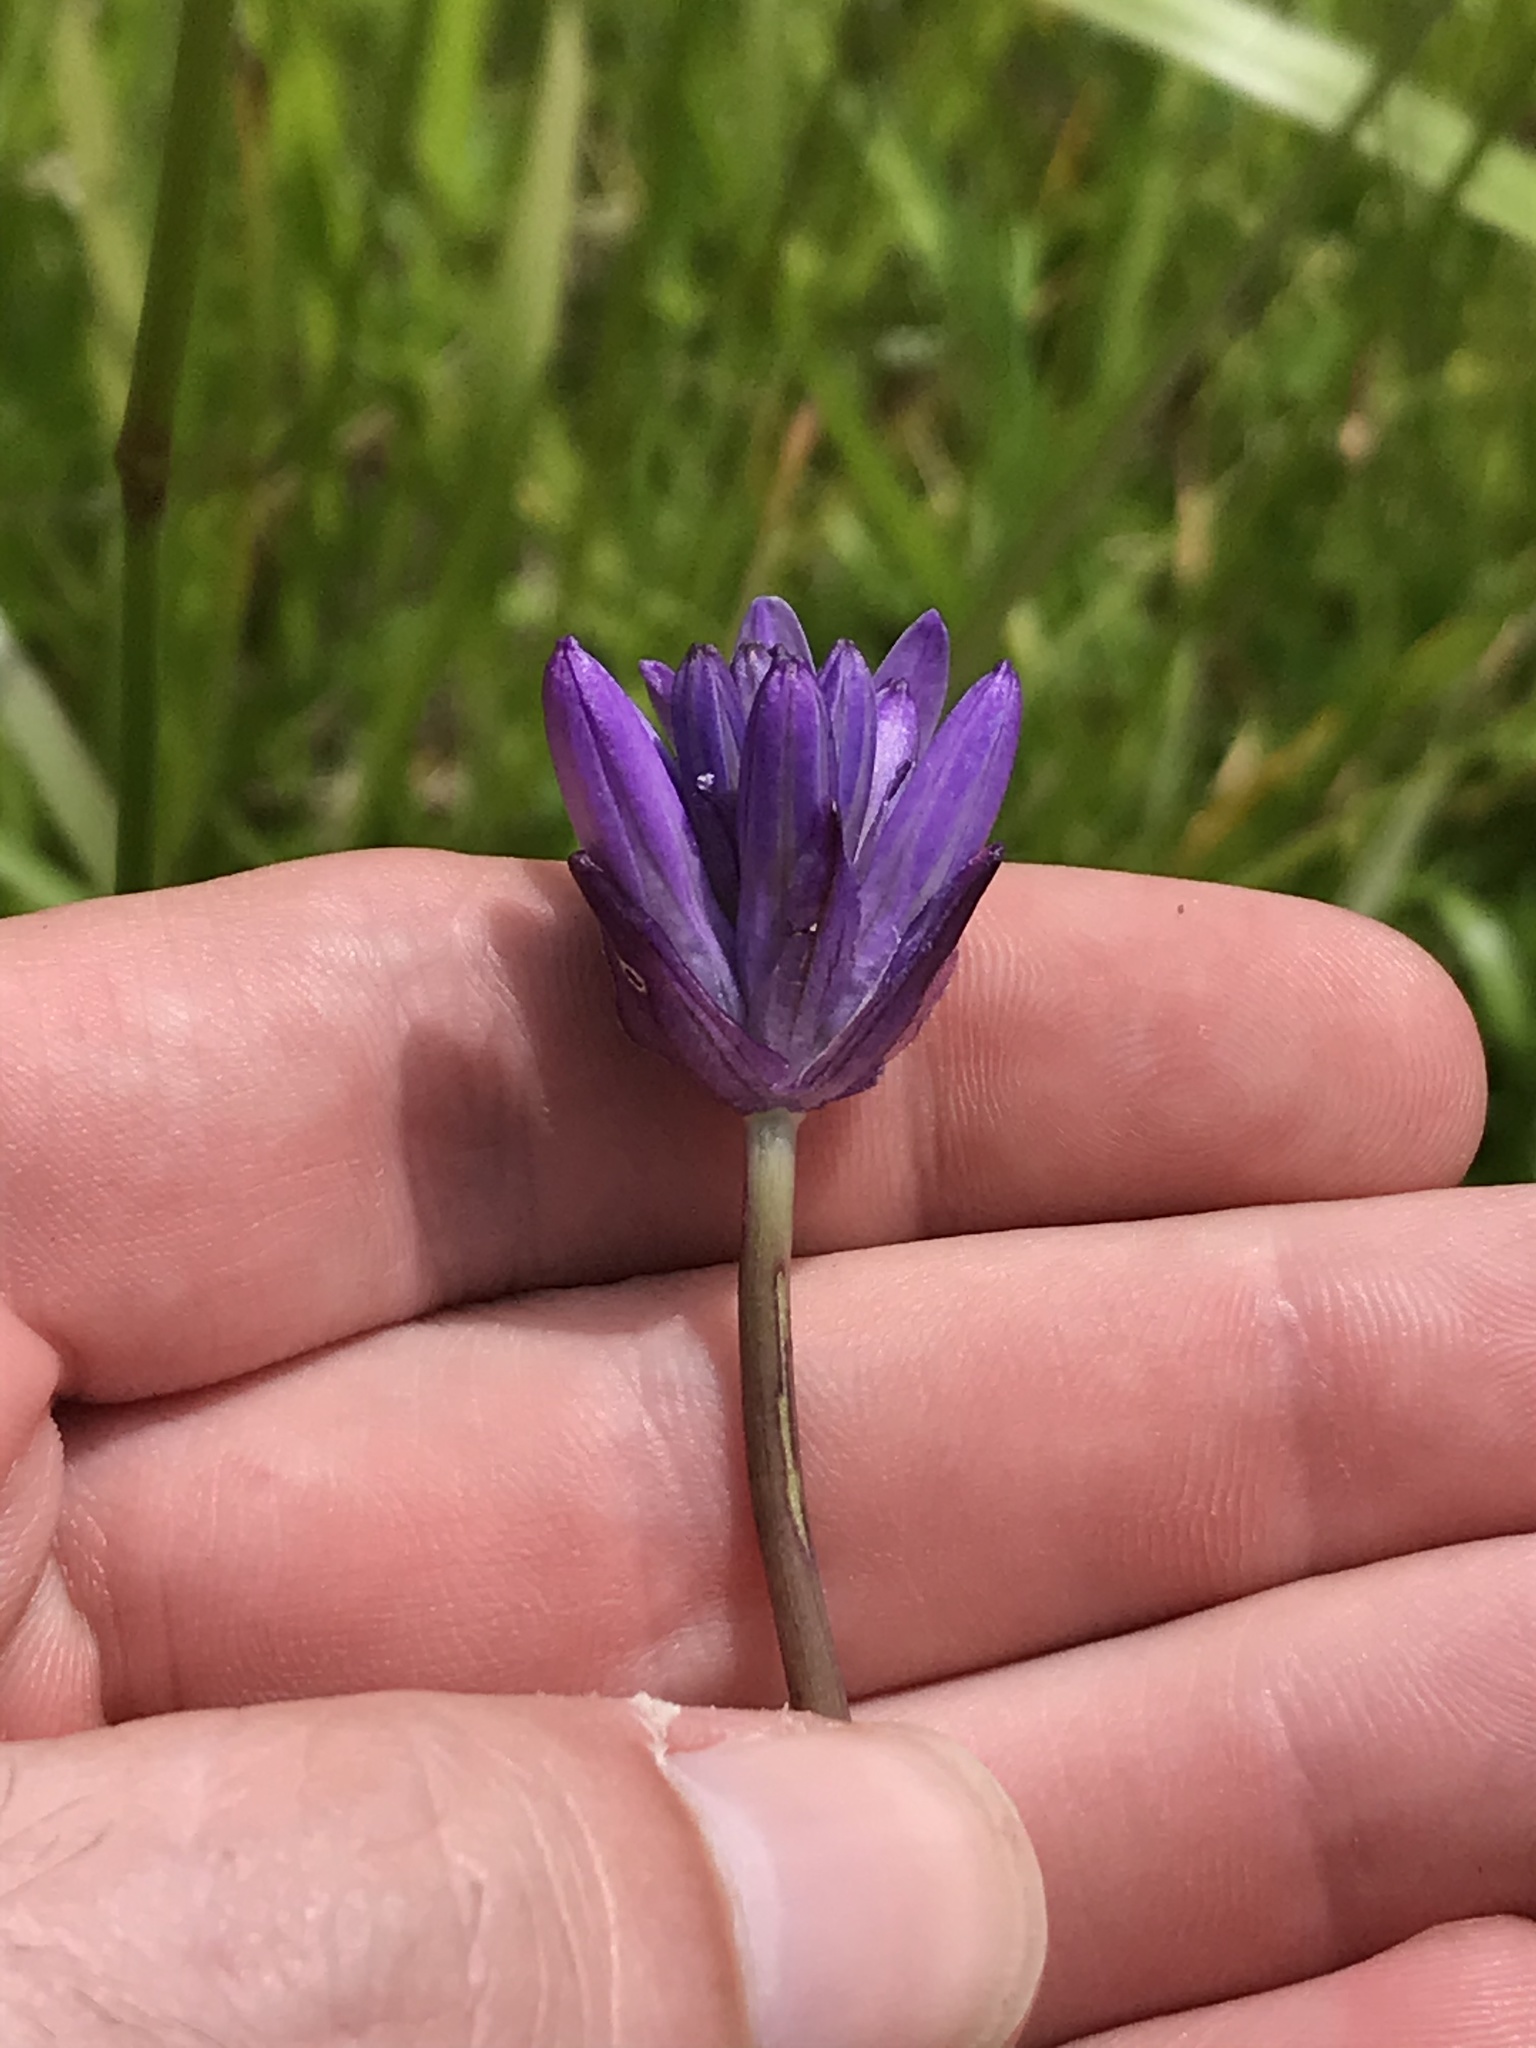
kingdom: Plantae
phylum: Tracheophyta
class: Liliopsida
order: Asparagales
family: Asparagaceae
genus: Dichelostemma
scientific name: Dichelostemma congestum
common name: Fork-tooth ookow
